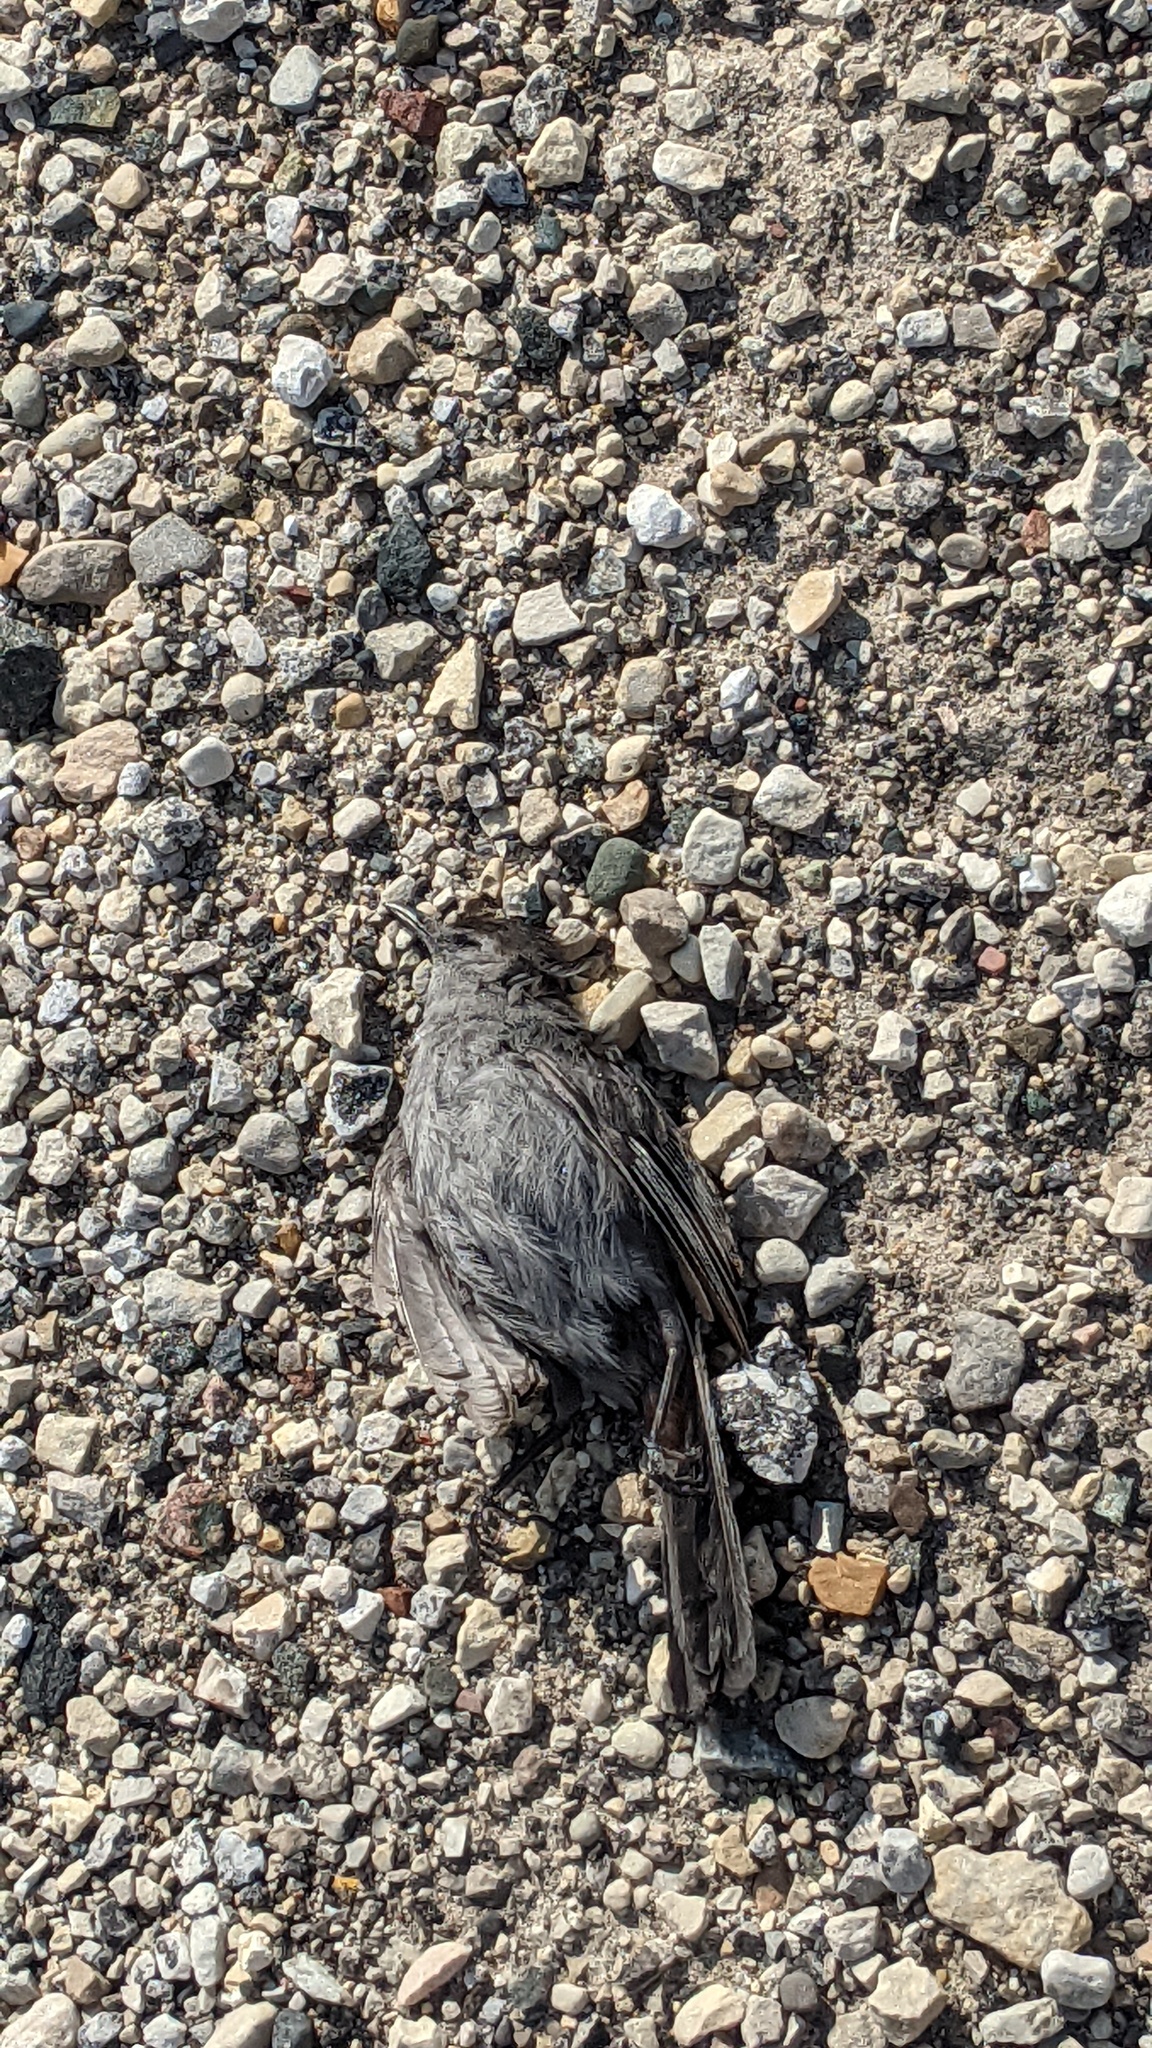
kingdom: Animalia
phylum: Chordata
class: Aves
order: Passeriformes
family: Mimidae
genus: Dumetella
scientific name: Dumetella carolinensis
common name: Gray catbird
